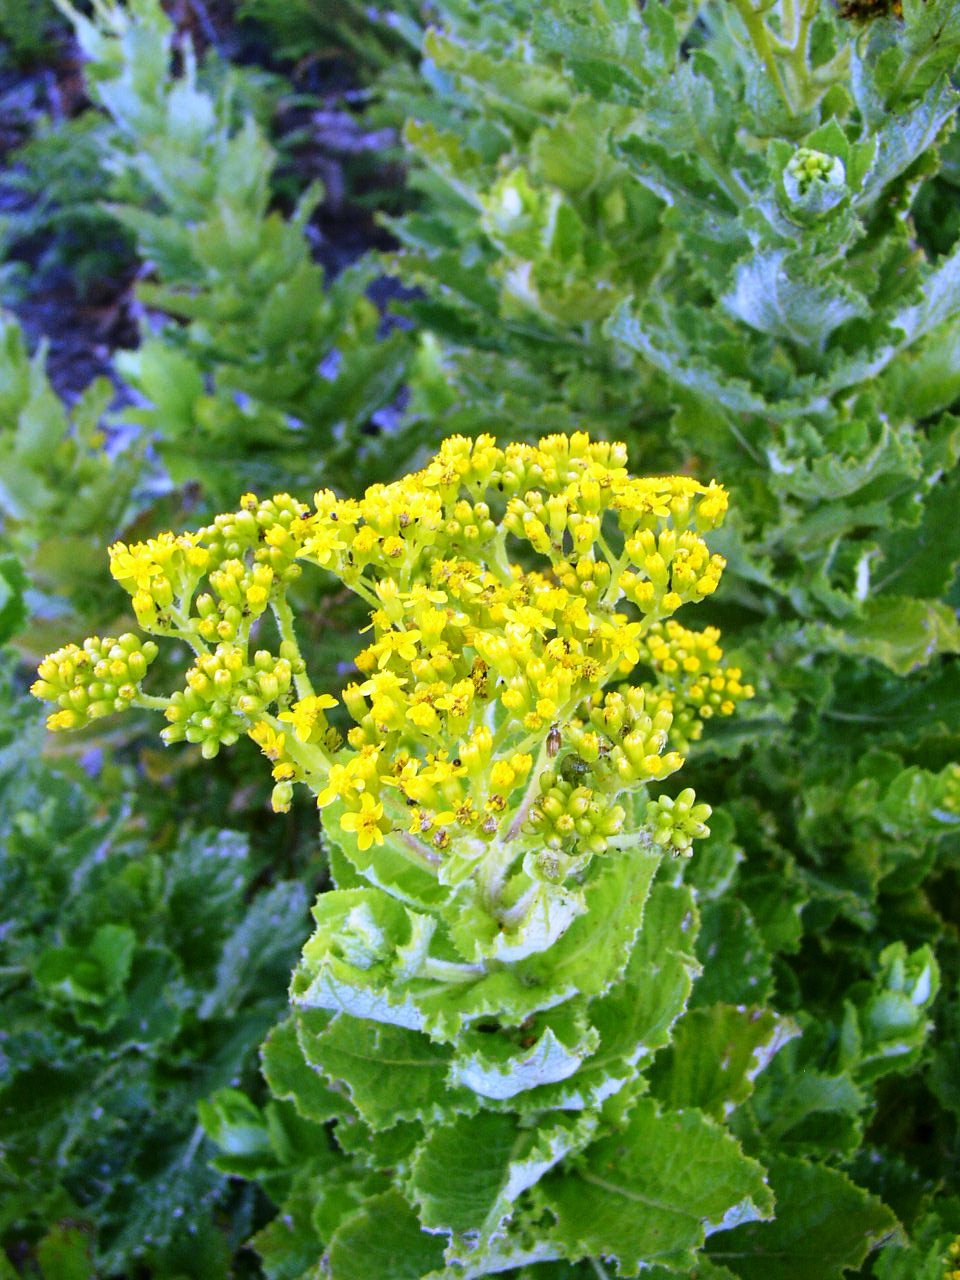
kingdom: Plantae
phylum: Tracheophyta
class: Magnoliopsida
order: Asterales
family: Asteraceae
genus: Senecio
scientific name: Senecio rigidus
